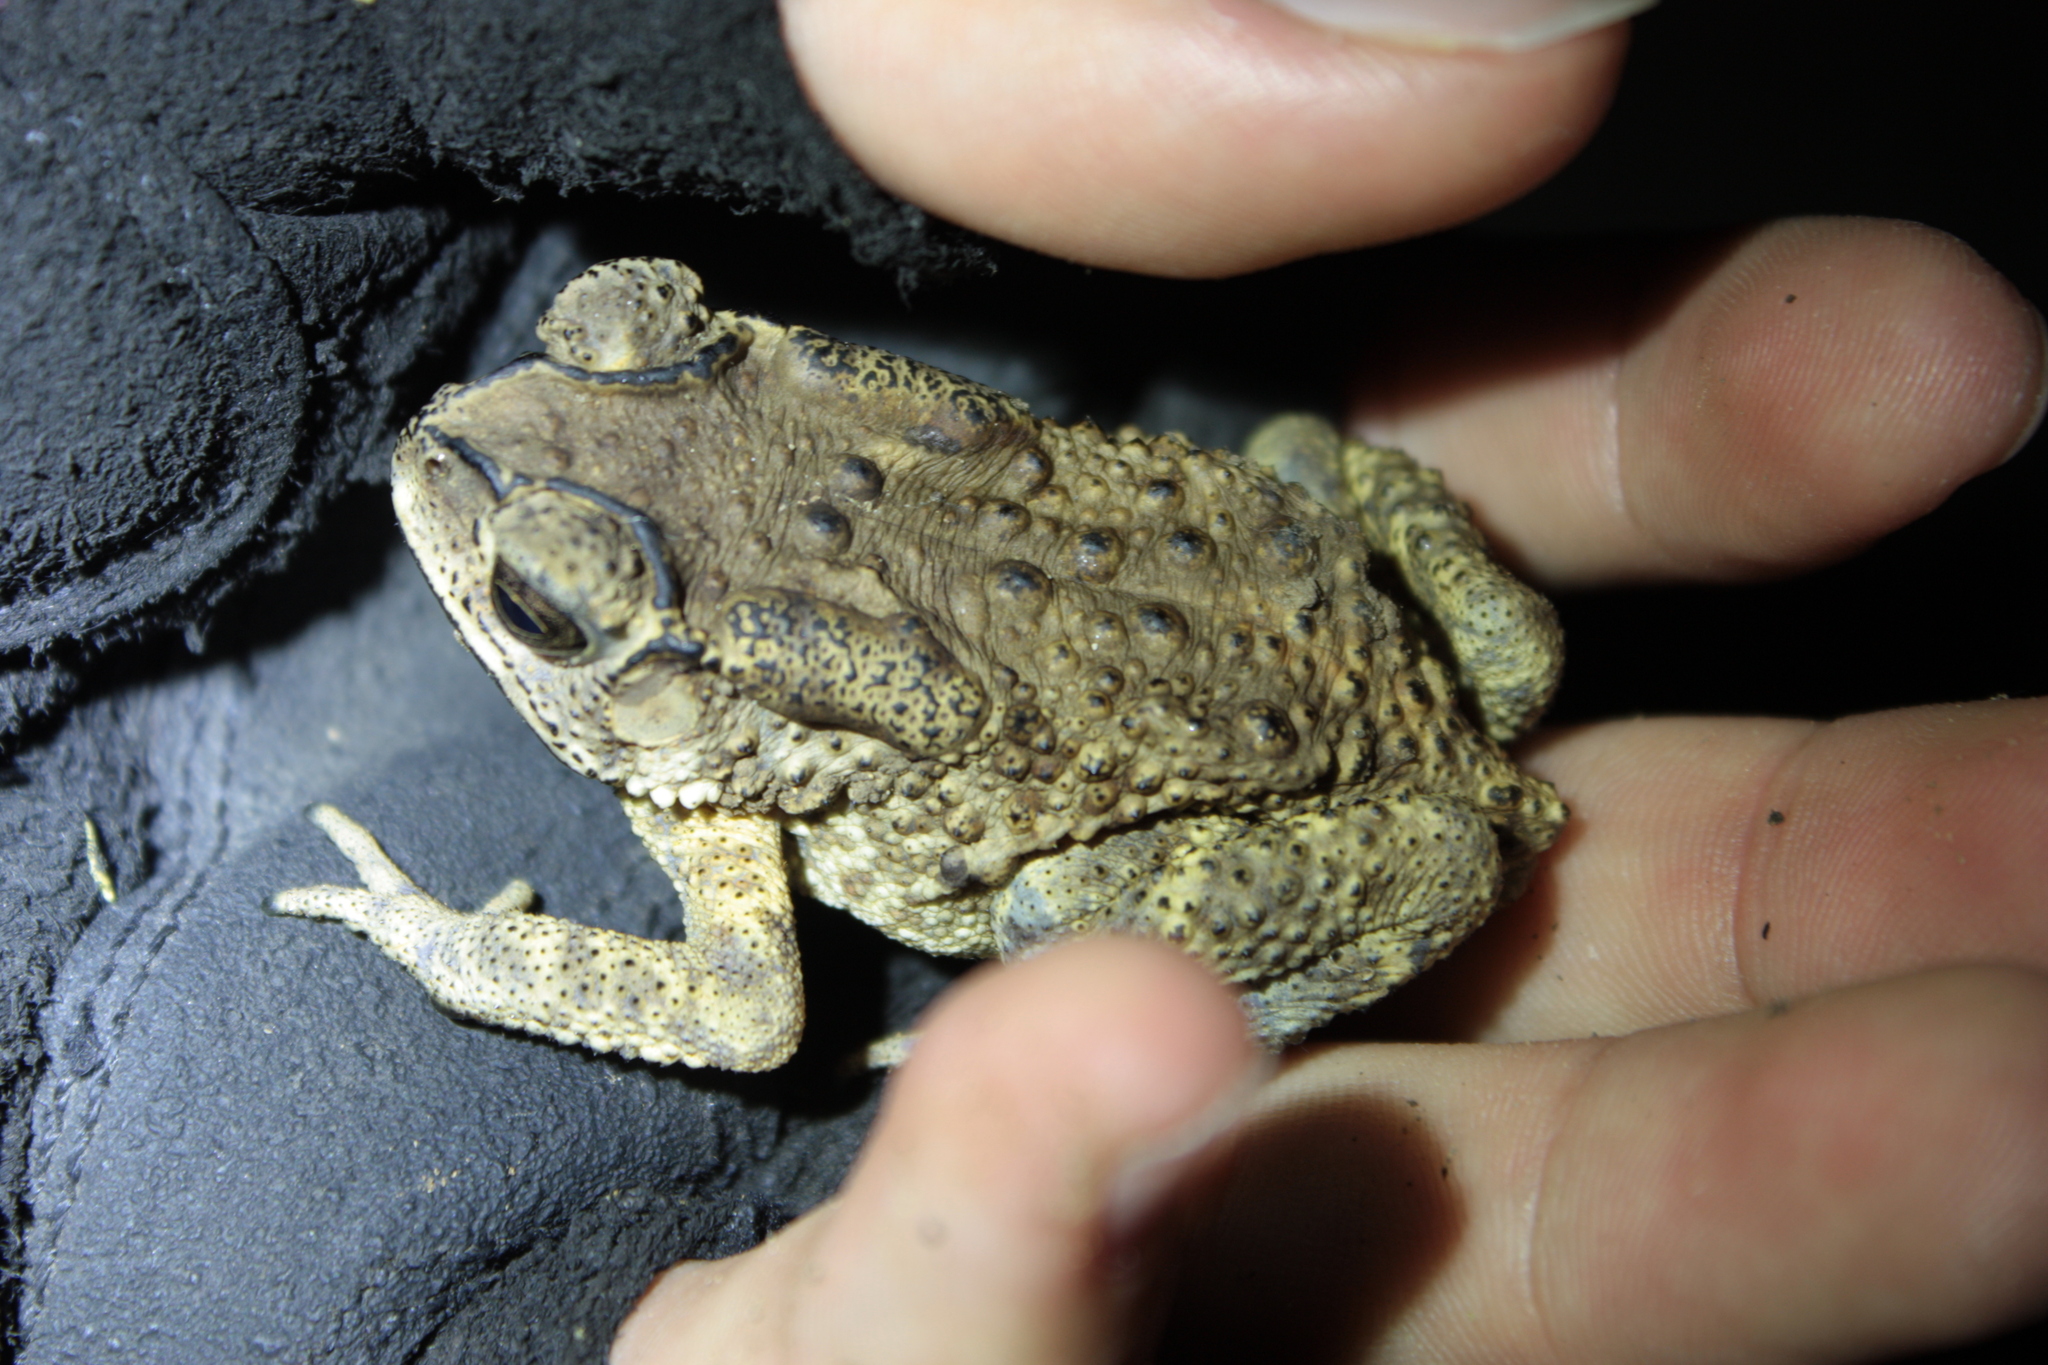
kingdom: Animalia
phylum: Chordata
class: Amphibia
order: Anura
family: Bufonidae
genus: Duttaphrynus
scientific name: Duttaphrynus melanostictus
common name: Common sunda toad
